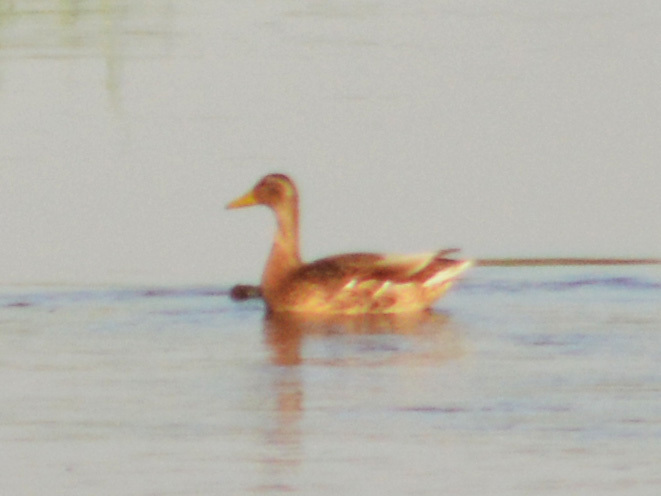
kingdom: Animalia
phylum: Chordata
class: Aves
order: Anseriformes
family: Anatidae
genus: Anas
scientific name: Anas platyrhynchos
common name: Mallard
